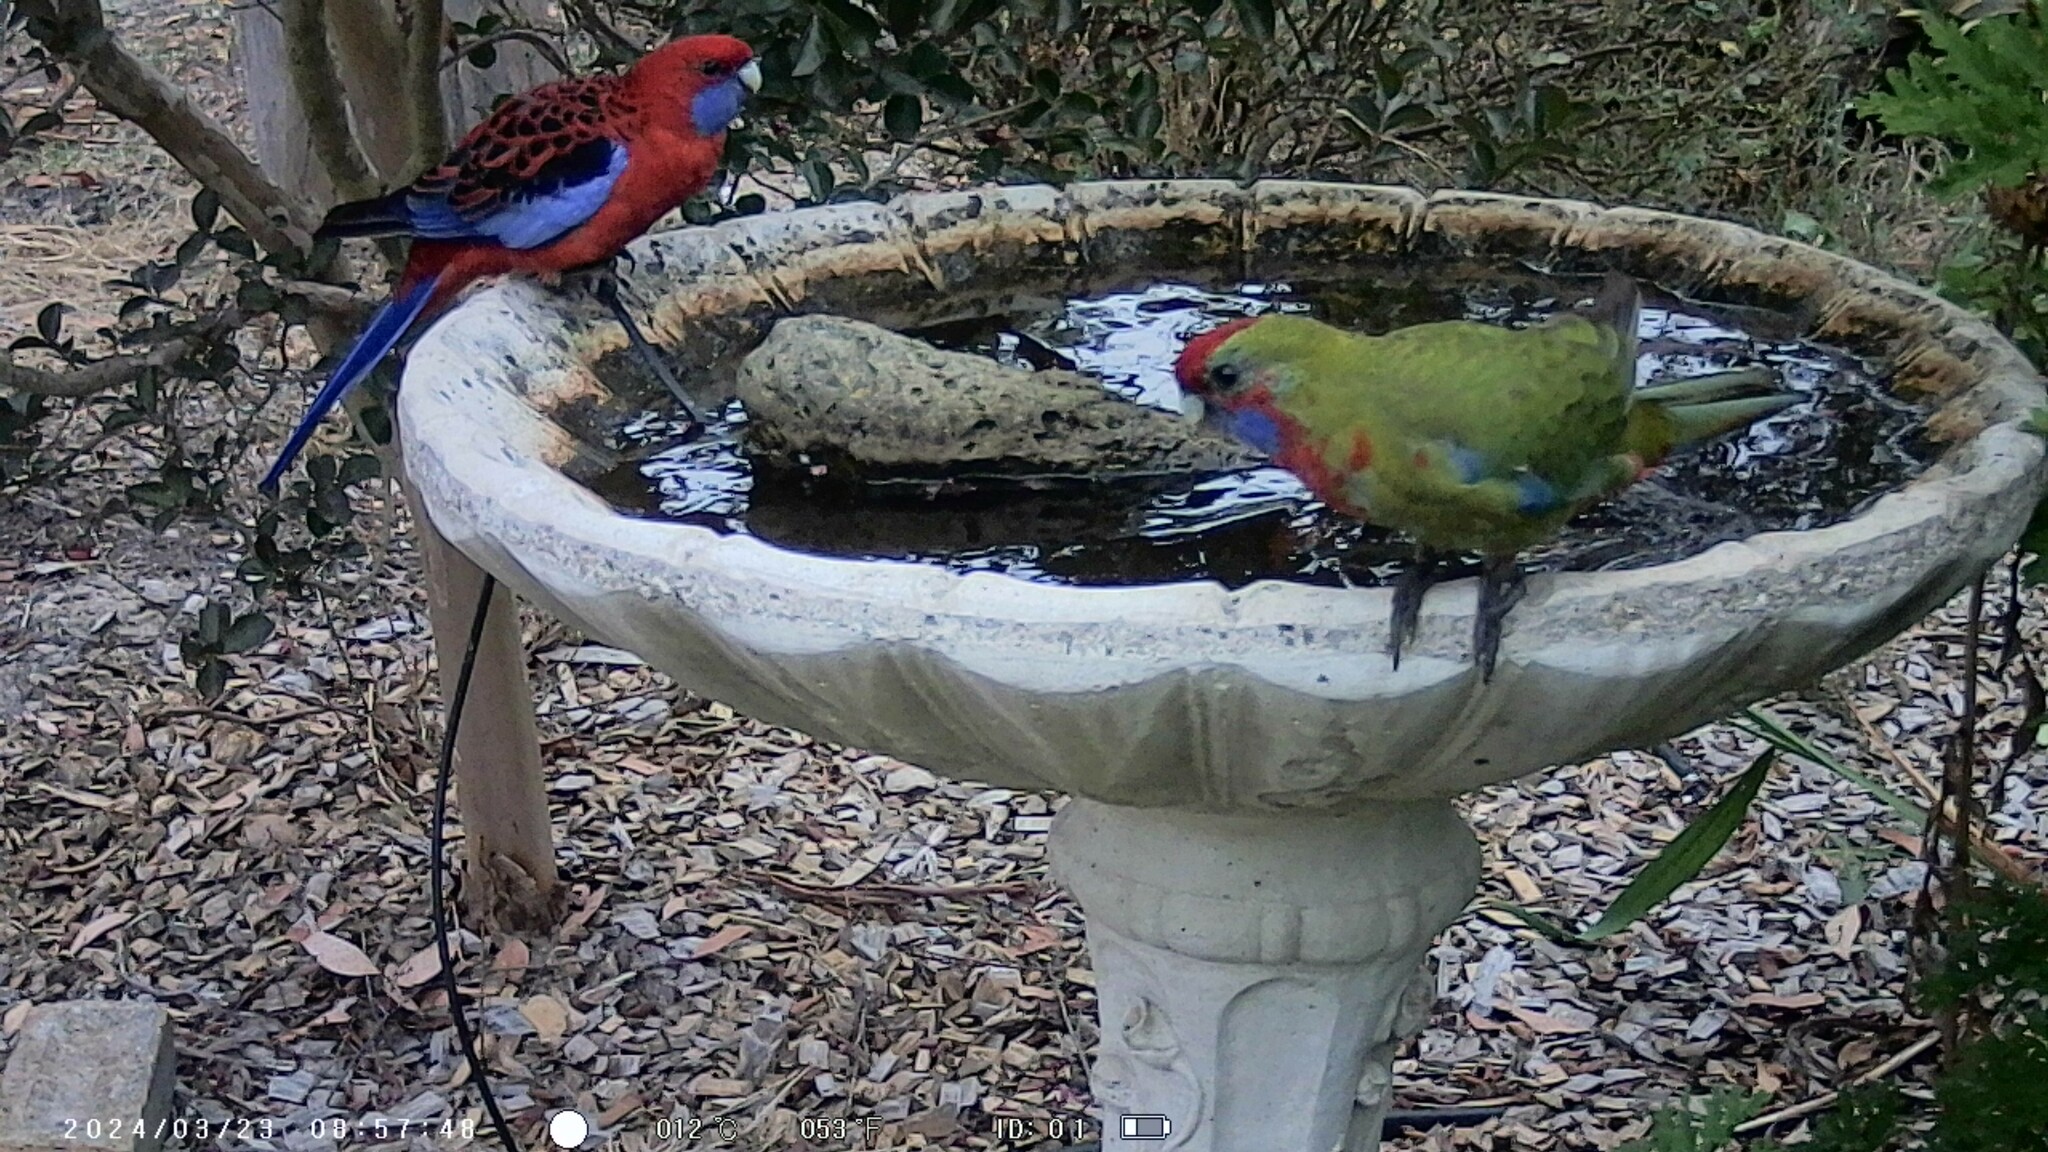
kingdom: Animalia
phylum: Chordata
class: Aves
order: Psittaciformes
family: Psittacidae
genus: Platycercus
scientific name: Platycercus elegans
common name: Crimson rosella
